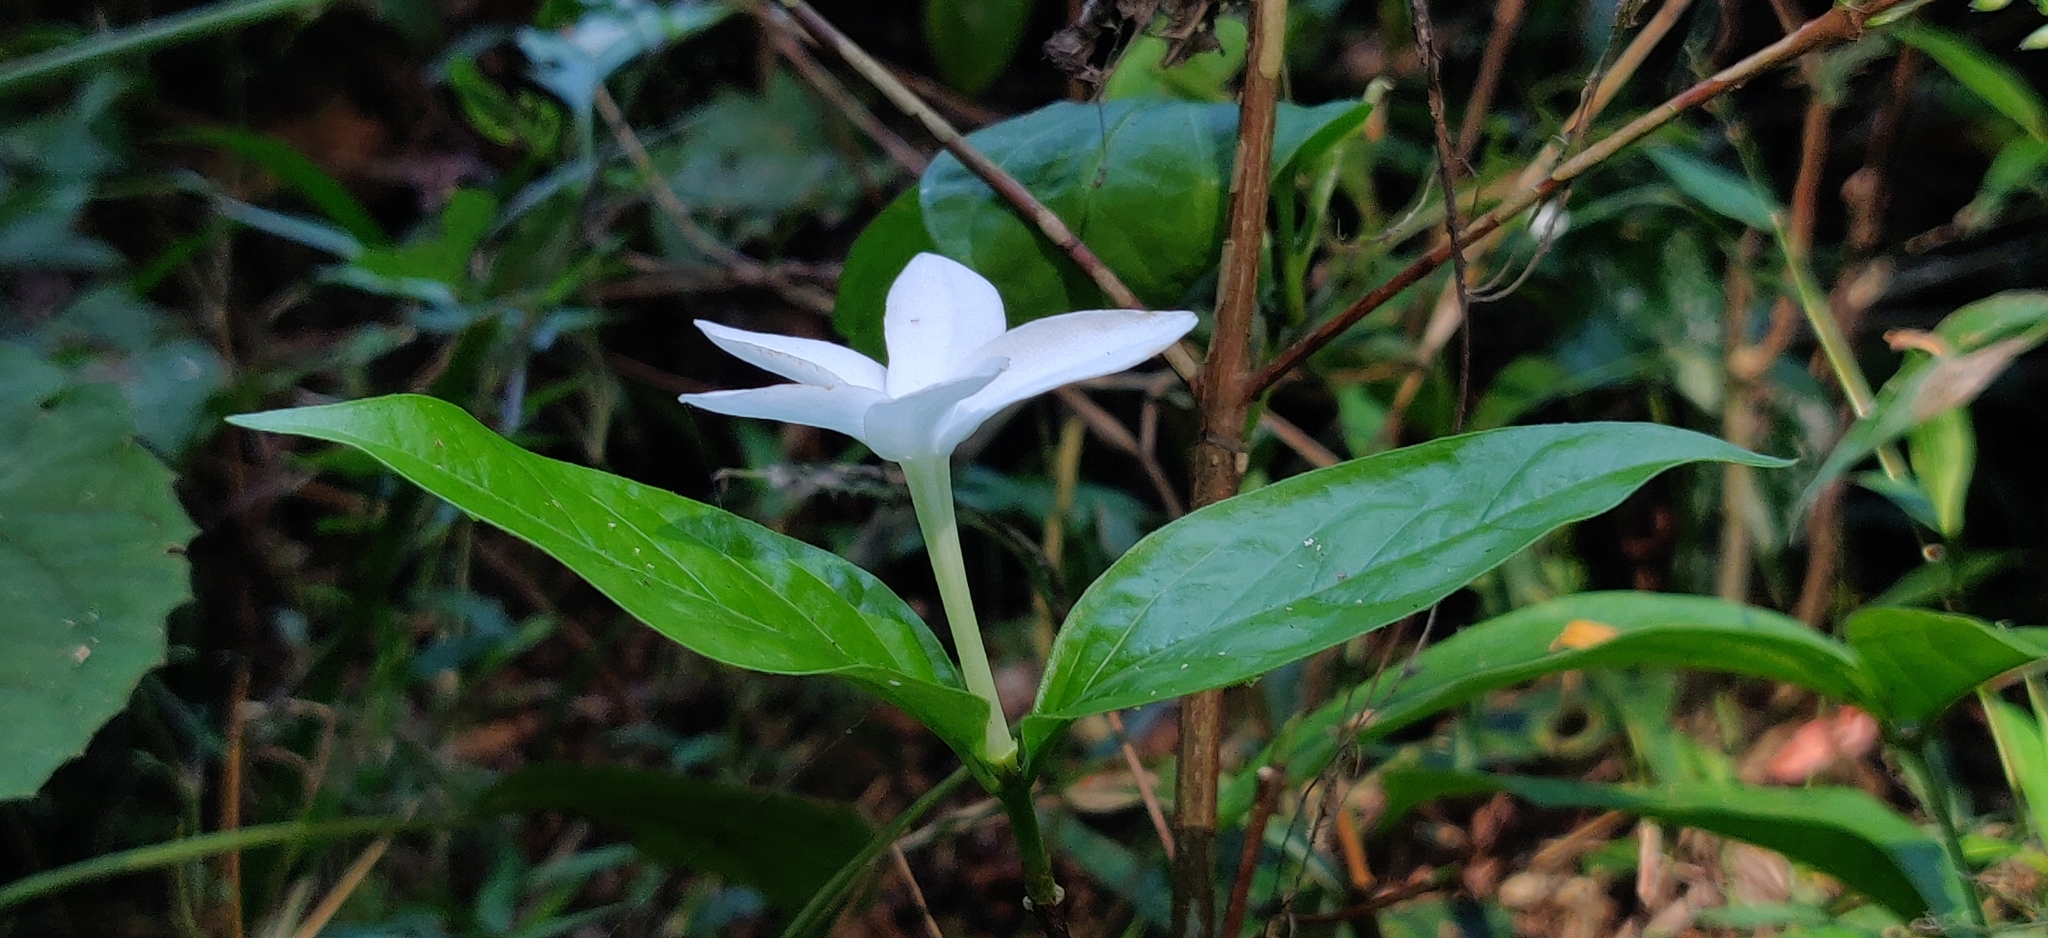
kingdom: Plantae
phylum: Tracheophyta
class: Magnoliopsida
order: Gentianales
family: Rubiaceae
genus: Coffea
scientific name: Coffea benghalensis
